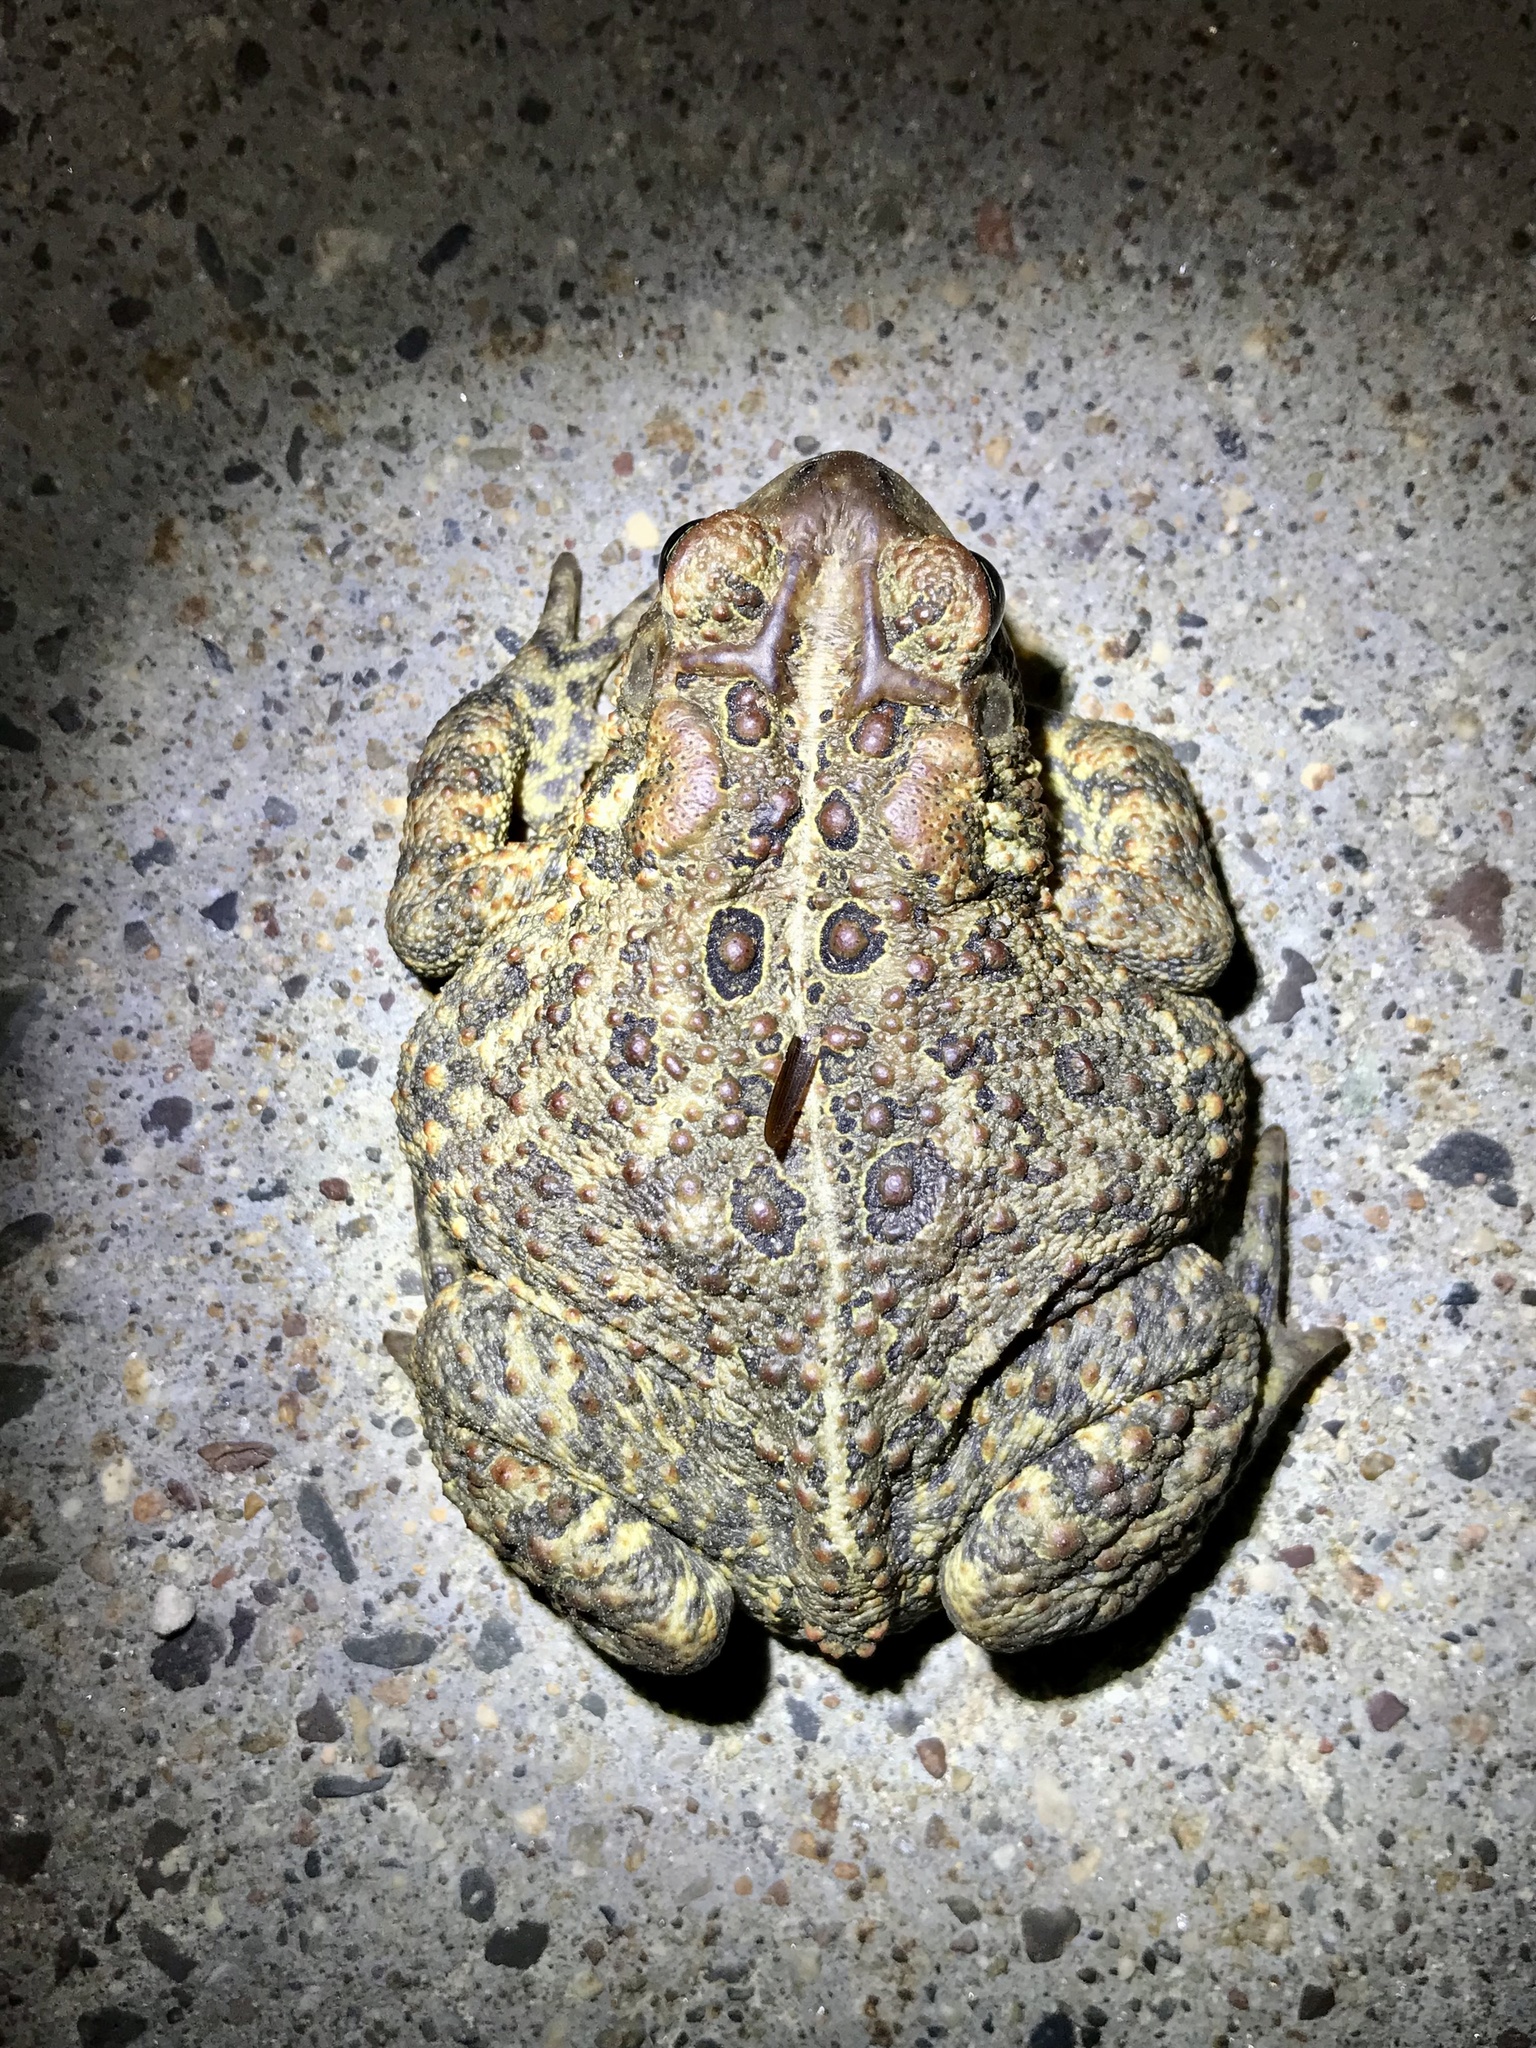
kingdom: Animalia
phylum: Chordata
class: Amphibia
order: Anura
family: Bufonidae
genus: Anaxyrus
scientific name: Anaxyrus americanus
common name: American toad
